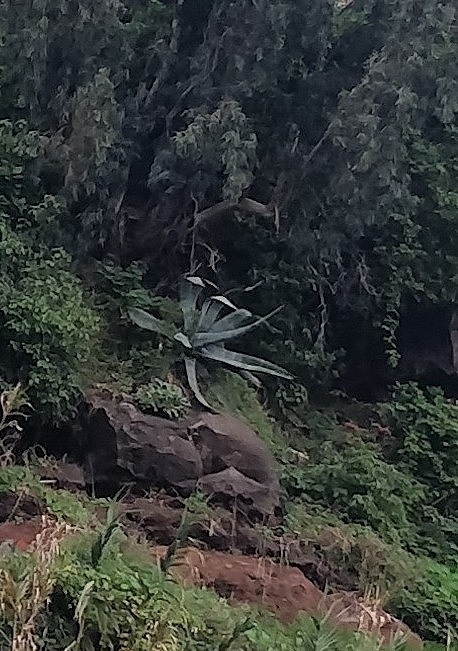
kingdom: Plantae
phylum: Tracheophyta
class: Liliopsida
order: Asparagales
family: Asparagaceae
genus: Agave
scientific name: Agave americana
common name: Centuryplant
